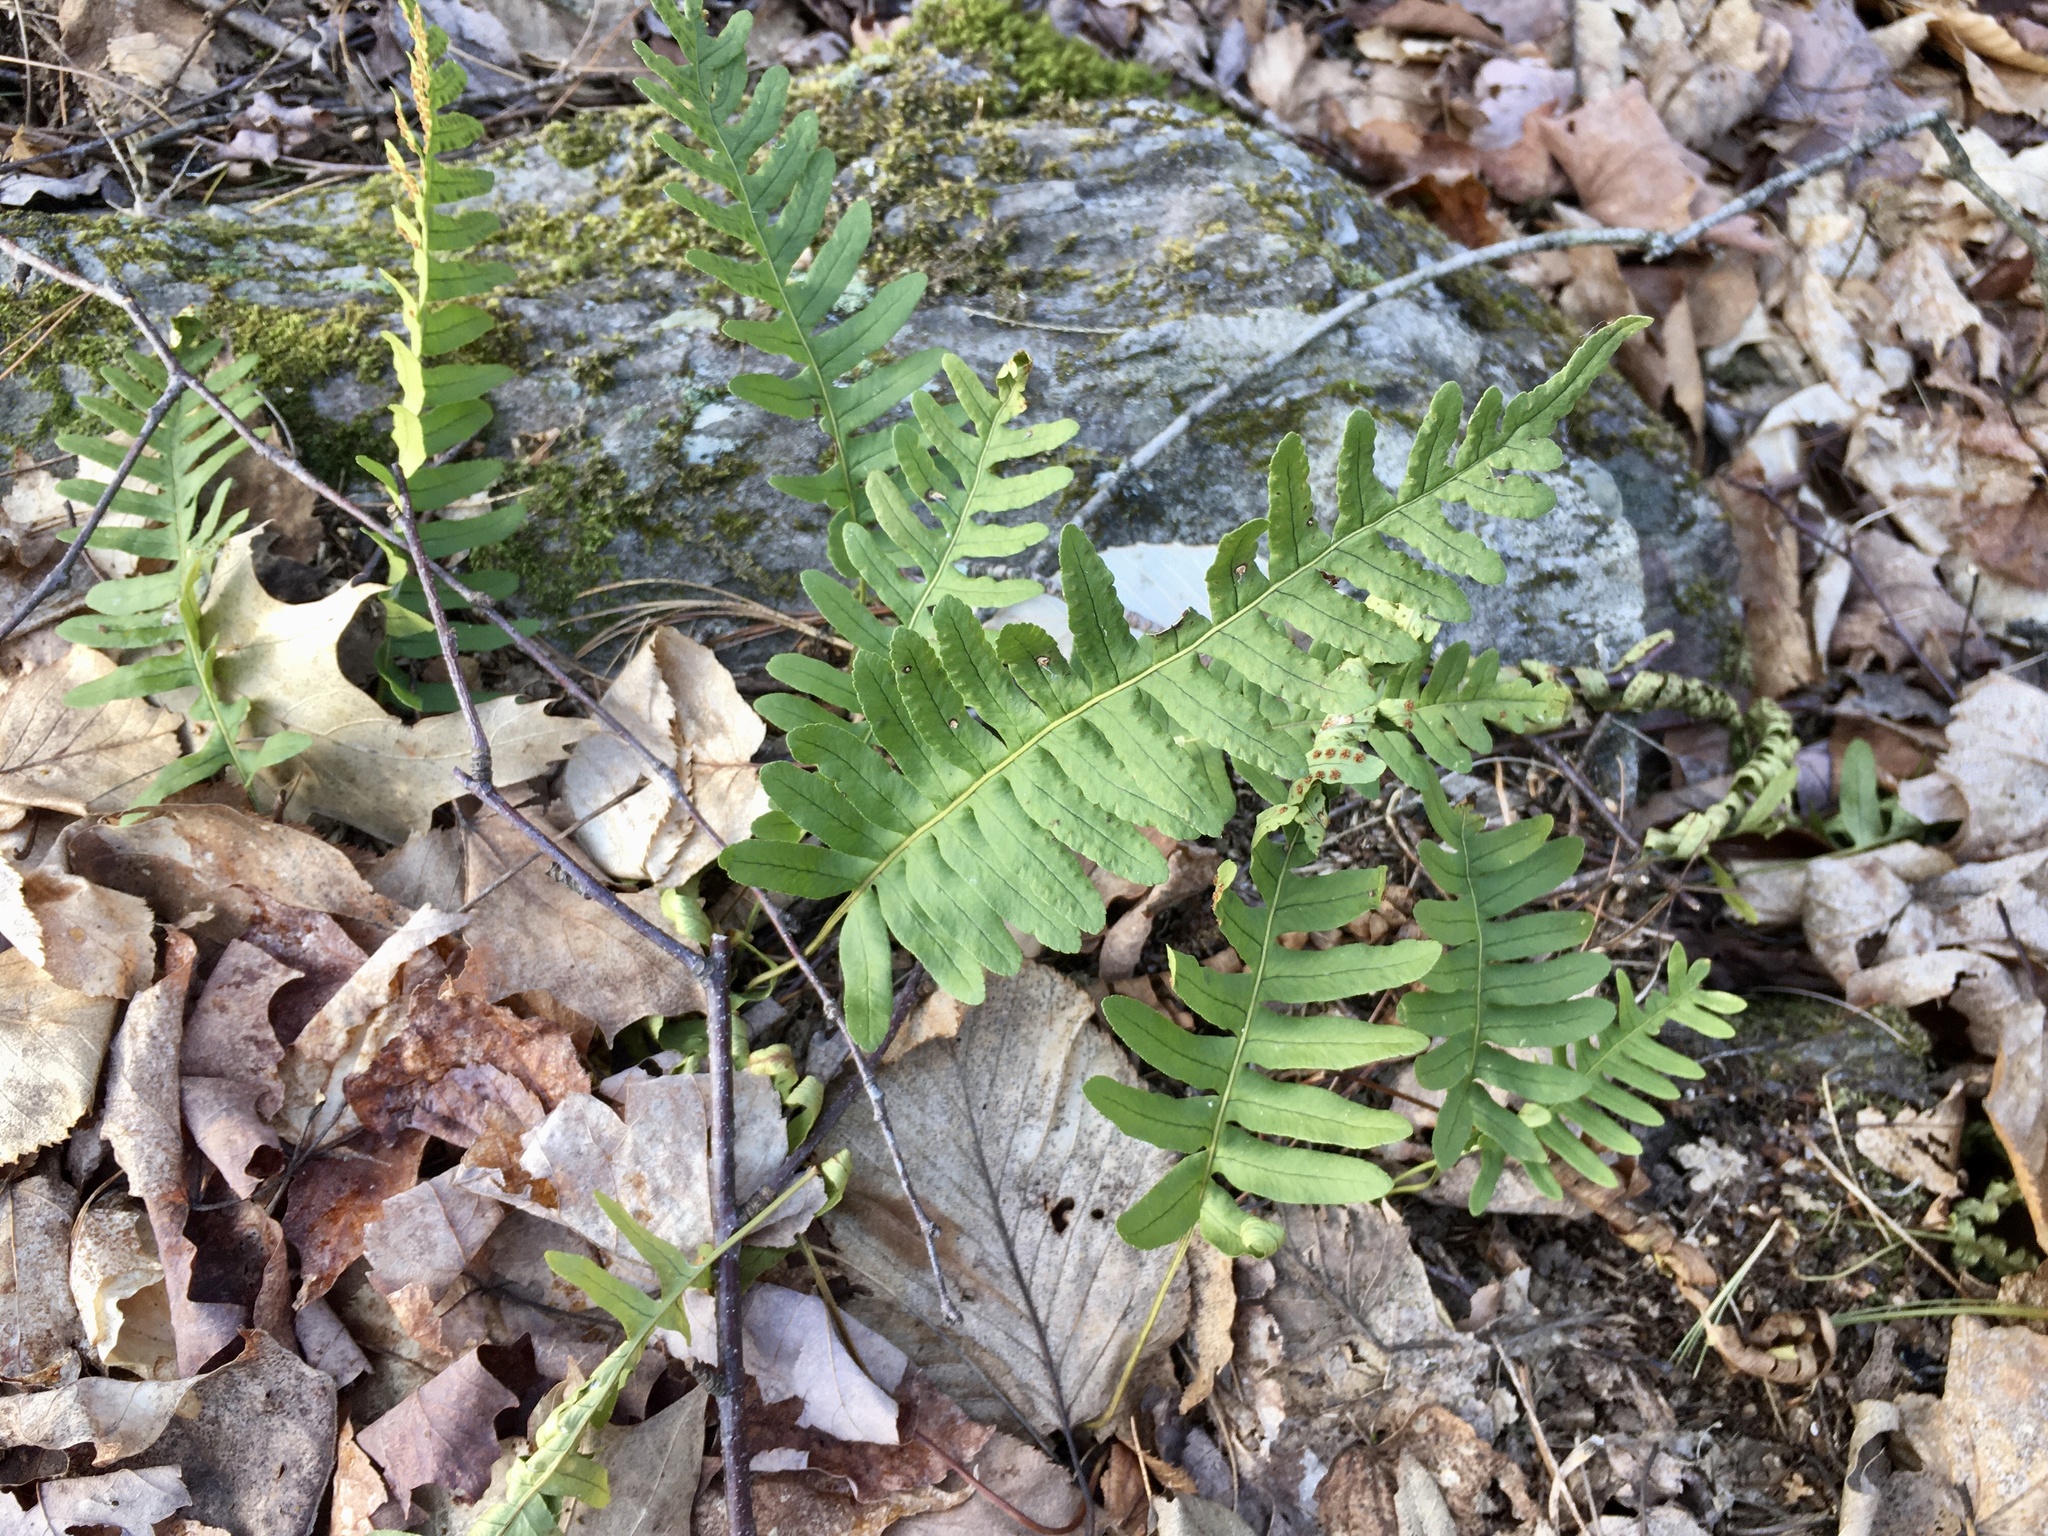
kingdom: Plantae
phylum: Tracheophyta
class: Polypodiopsida
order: Polypodiales
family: Polypodiaceae
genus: Polypodium
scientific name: Polypodium virginianum
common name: American wall fern
